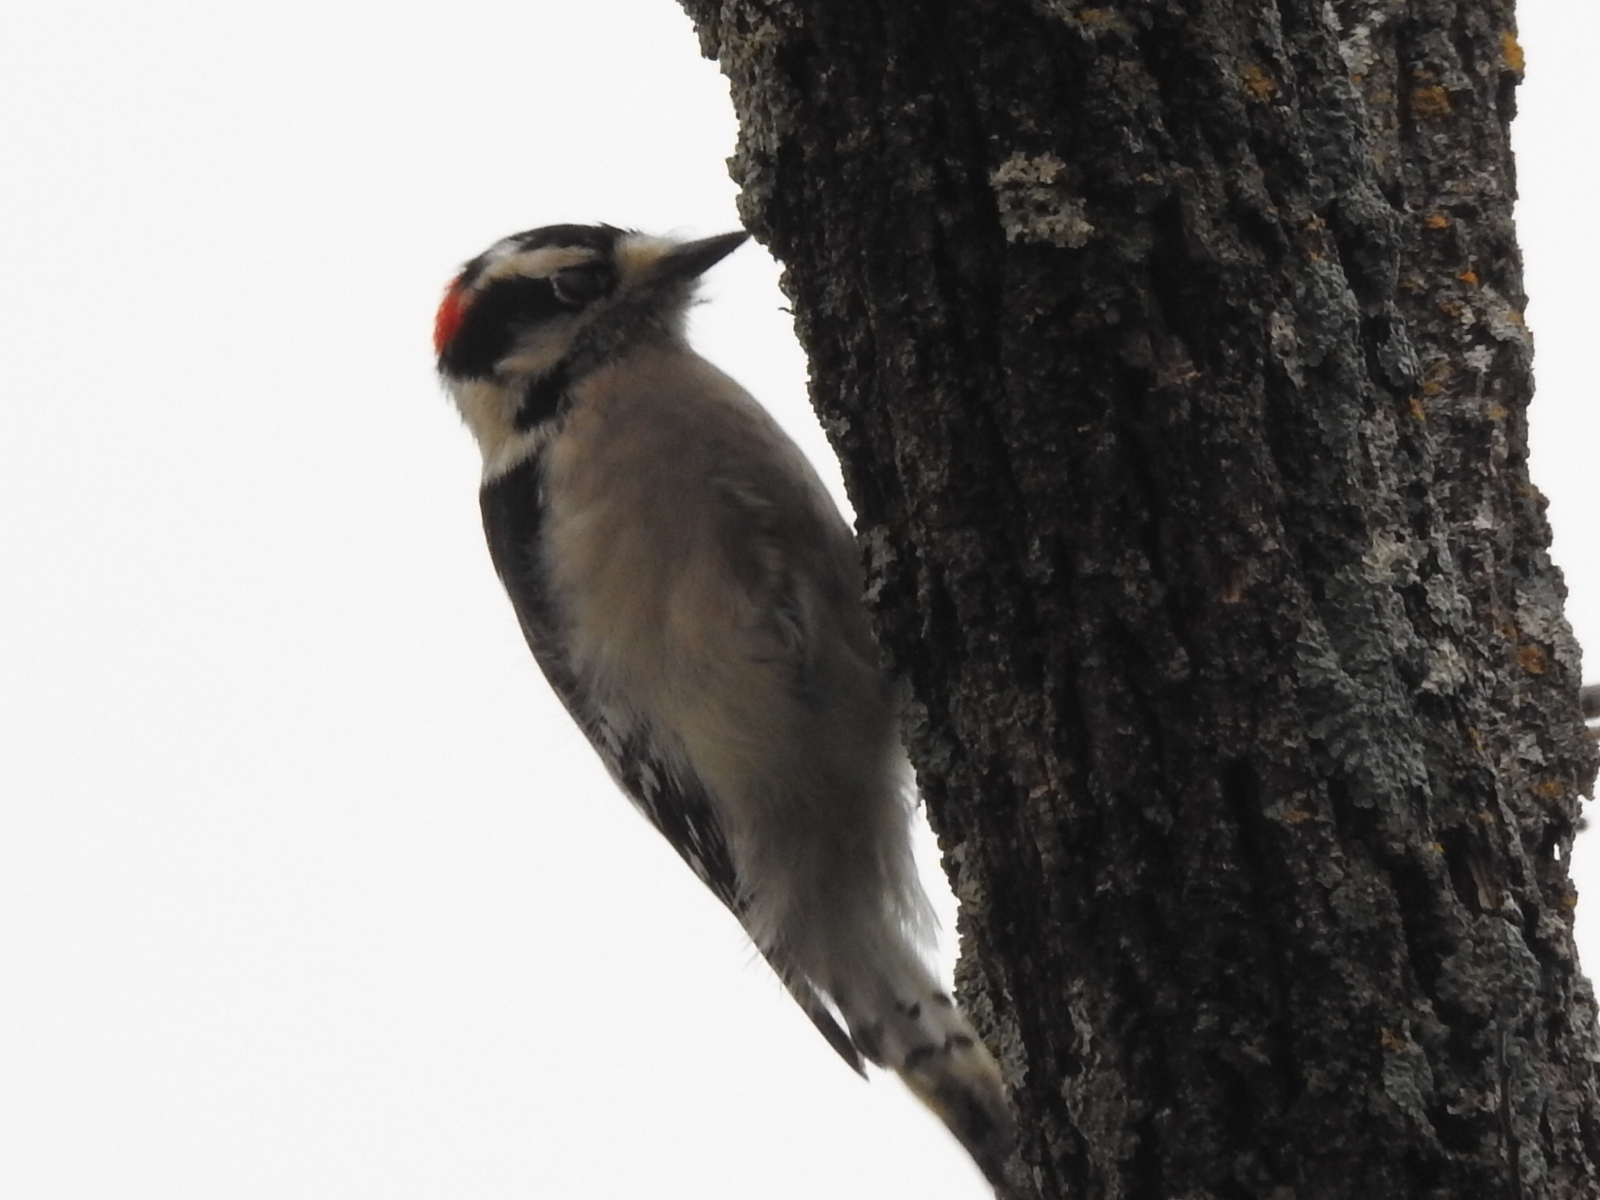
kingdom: Animalia
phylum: Chordata
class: Aves
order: Piciformes
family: Picidae
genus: Dryobates
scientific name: Dryobates pubescens
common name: Downy woodpecker
